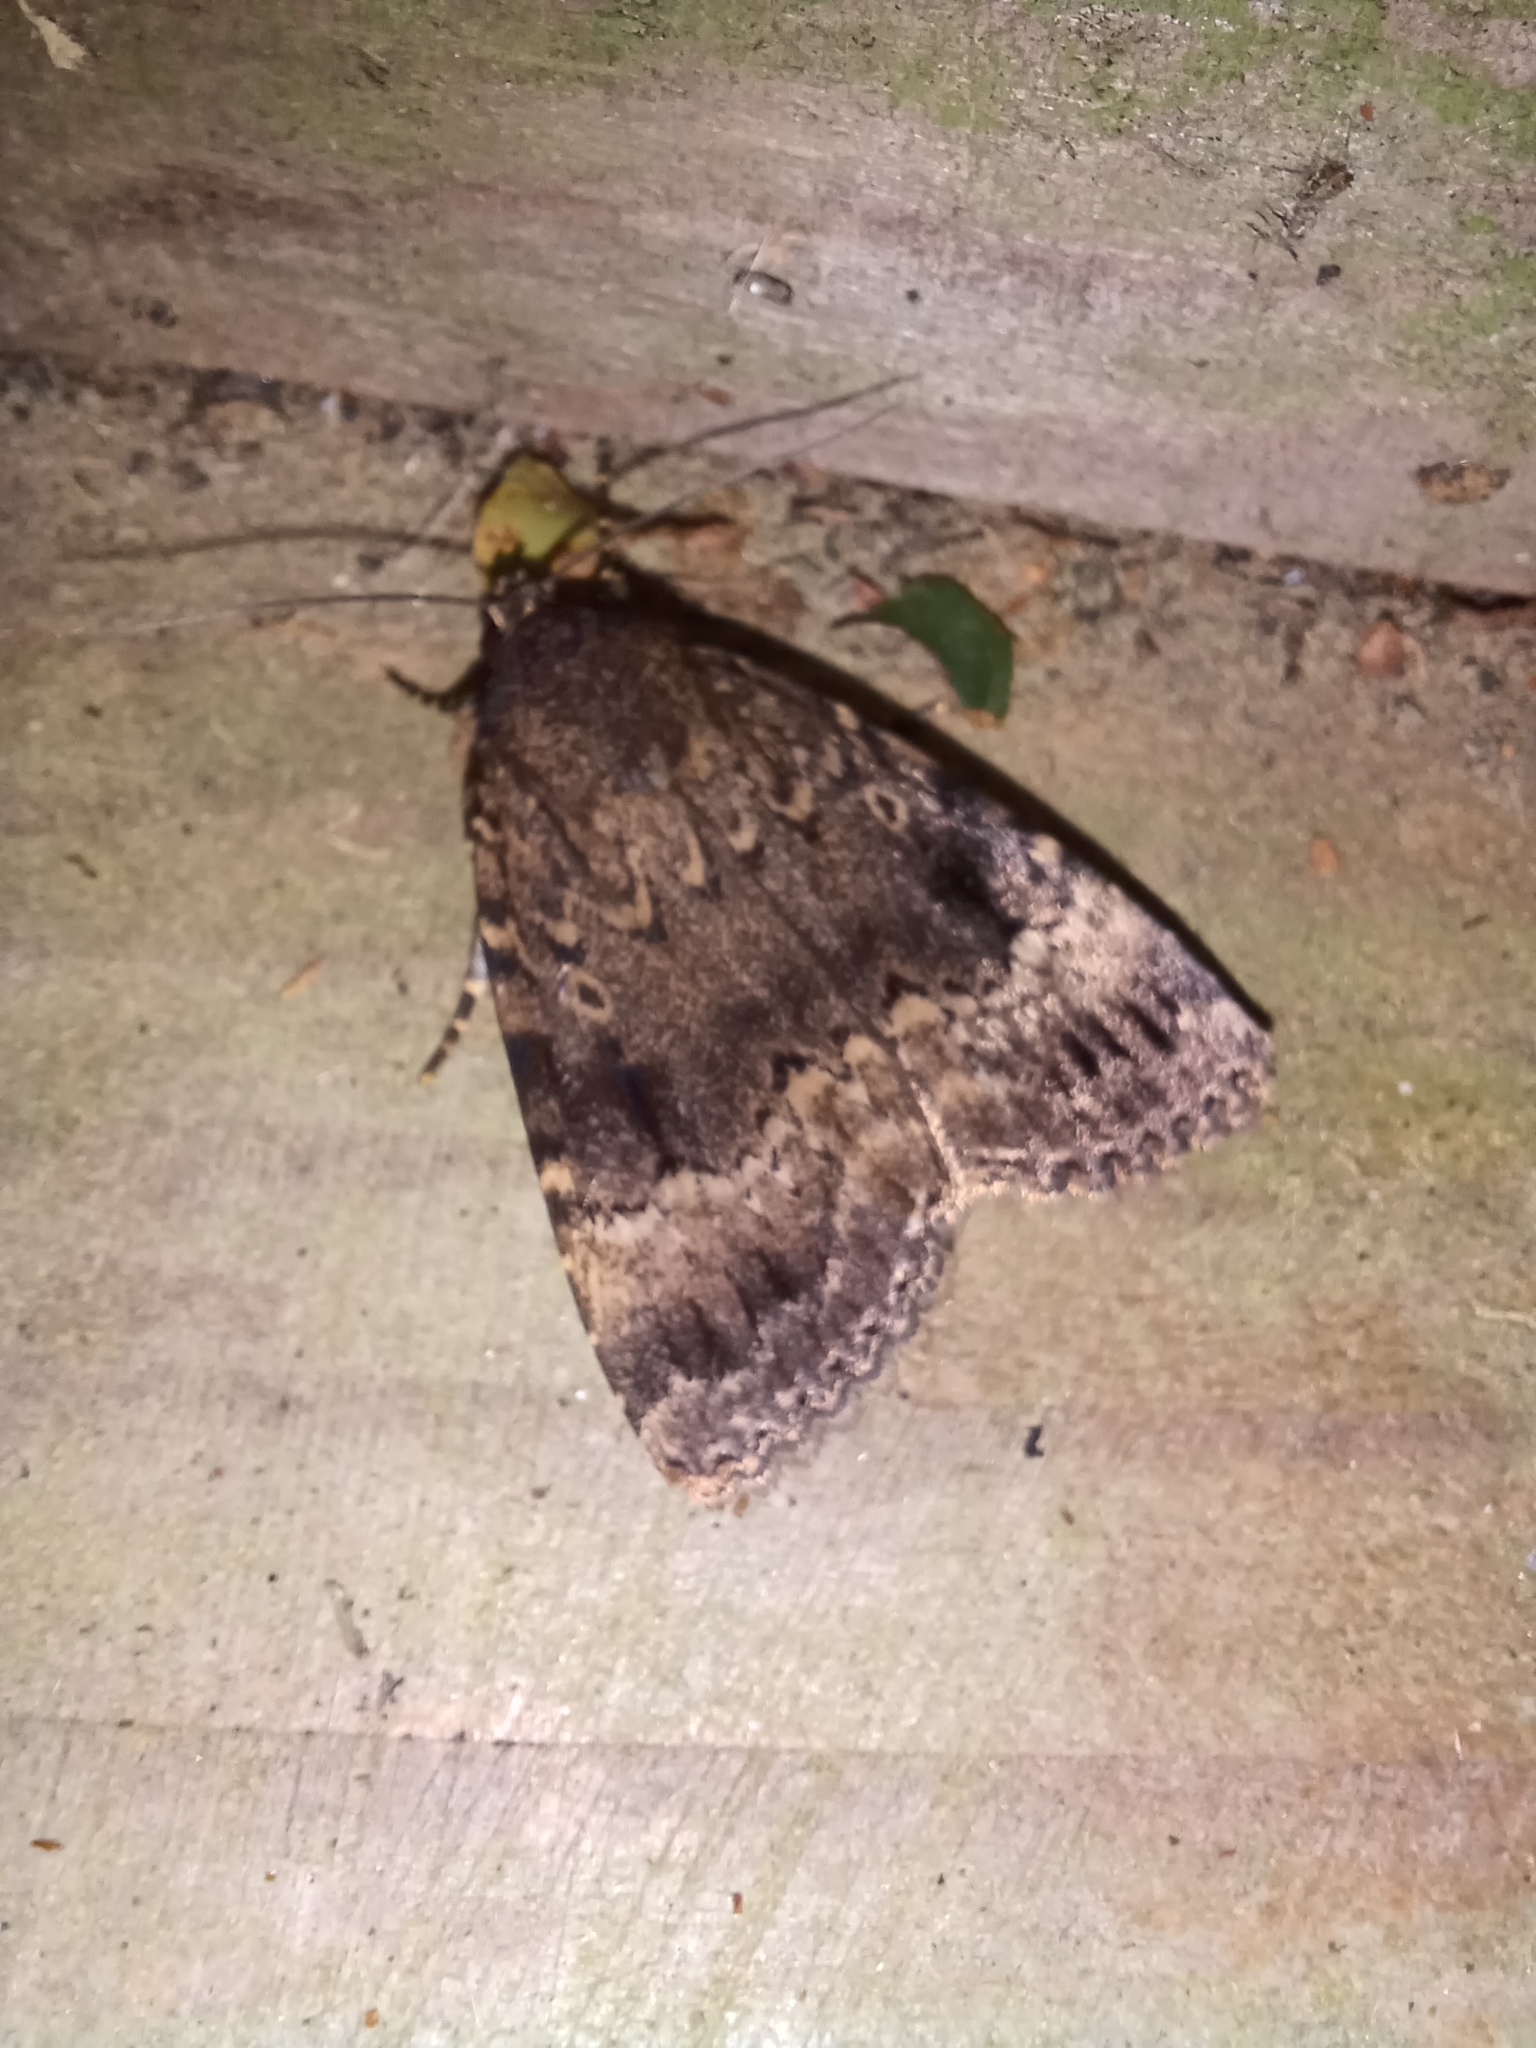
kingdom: Animalia
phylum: Arthropoda
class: Insecta
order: Lepidoptera
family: Noctuidae
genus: Amphipyra
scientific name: Amphipyra pyramidea
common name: Copper underwing
